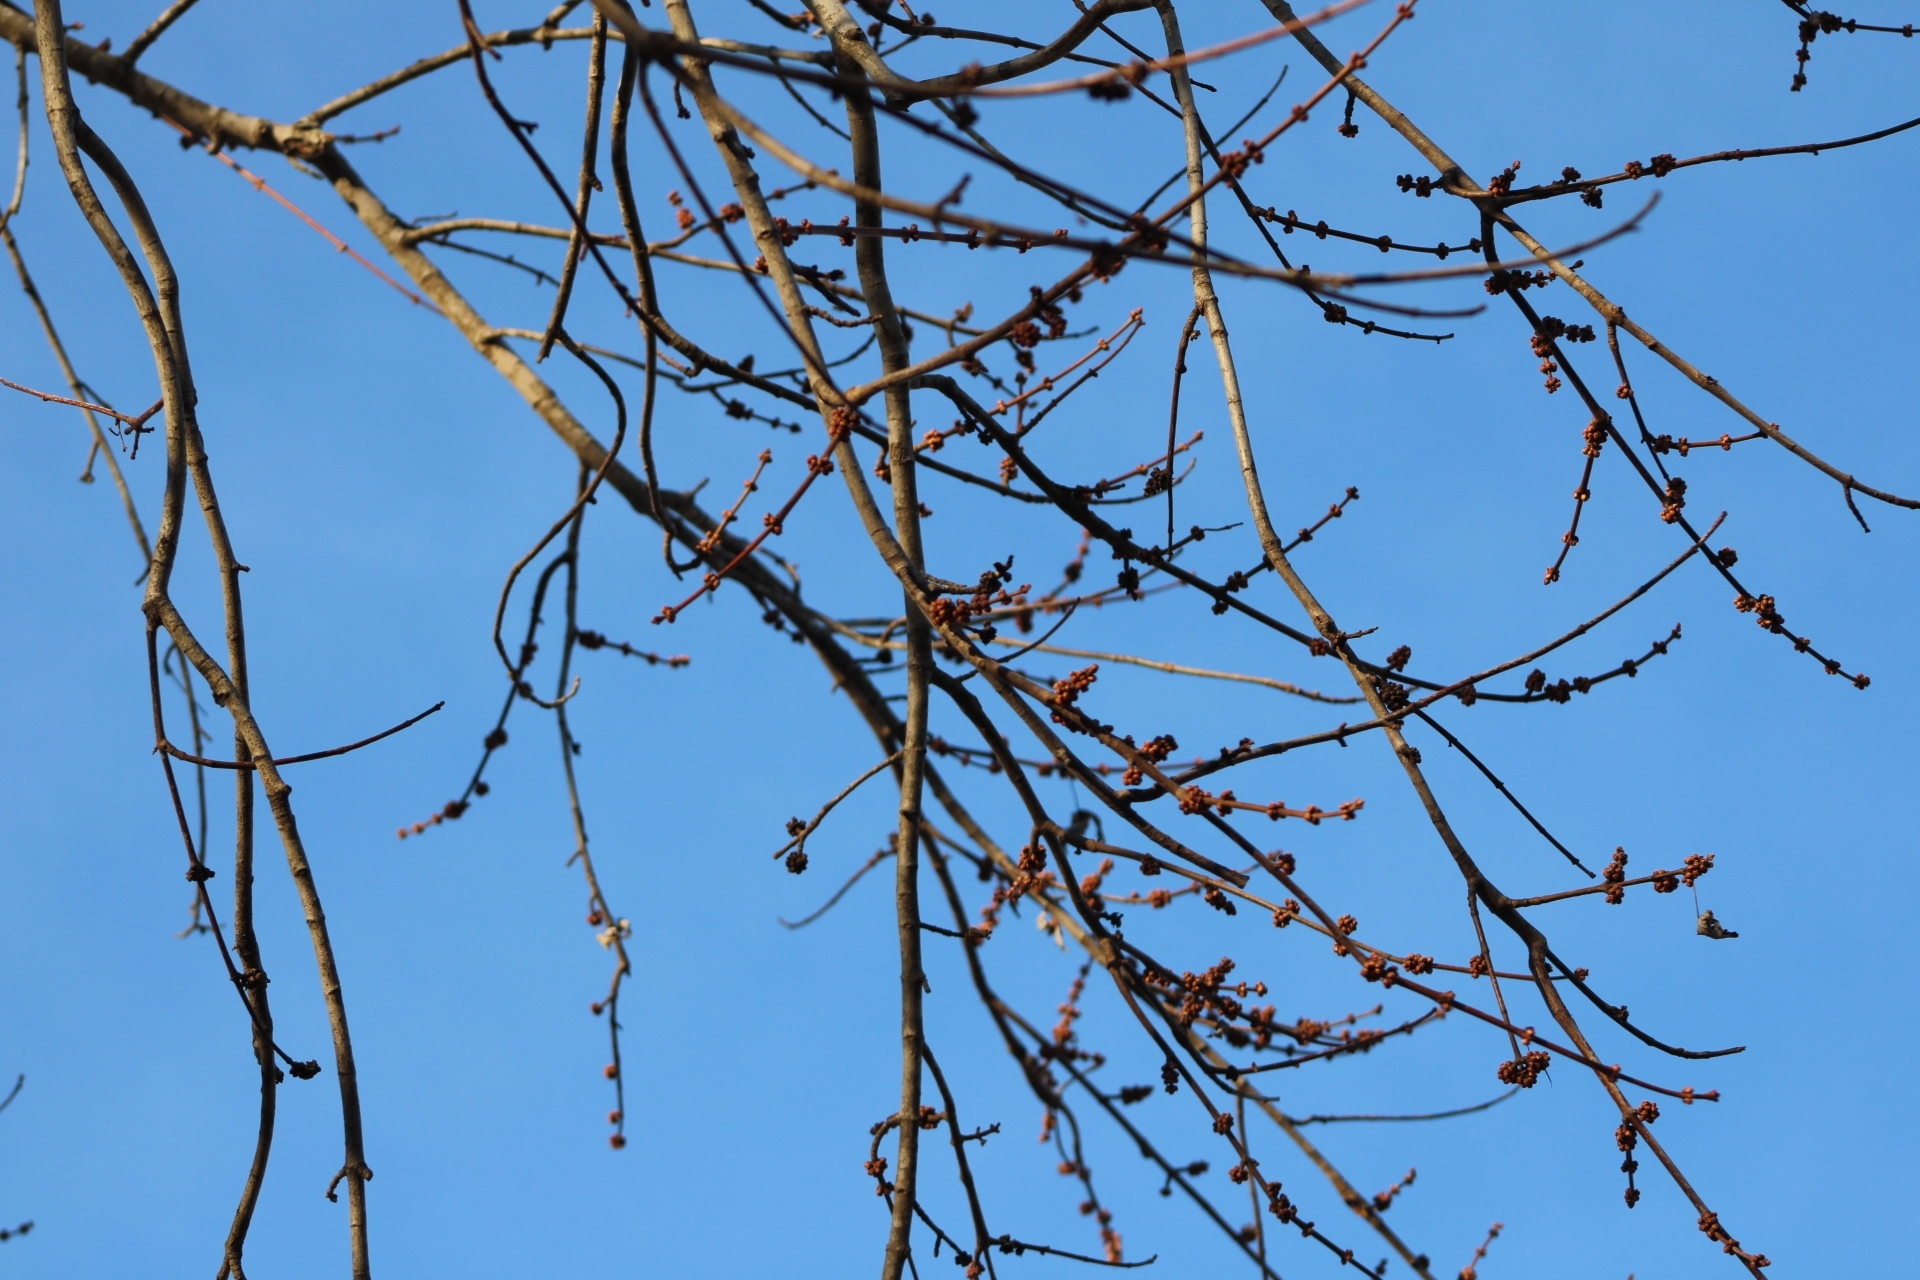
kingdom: Plantae
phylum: Tracheophyta
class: Magnoliopsida
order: Sapindales
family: Sapindaceae
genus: Acer
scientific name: Acer saccharinum
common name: Silver maple
